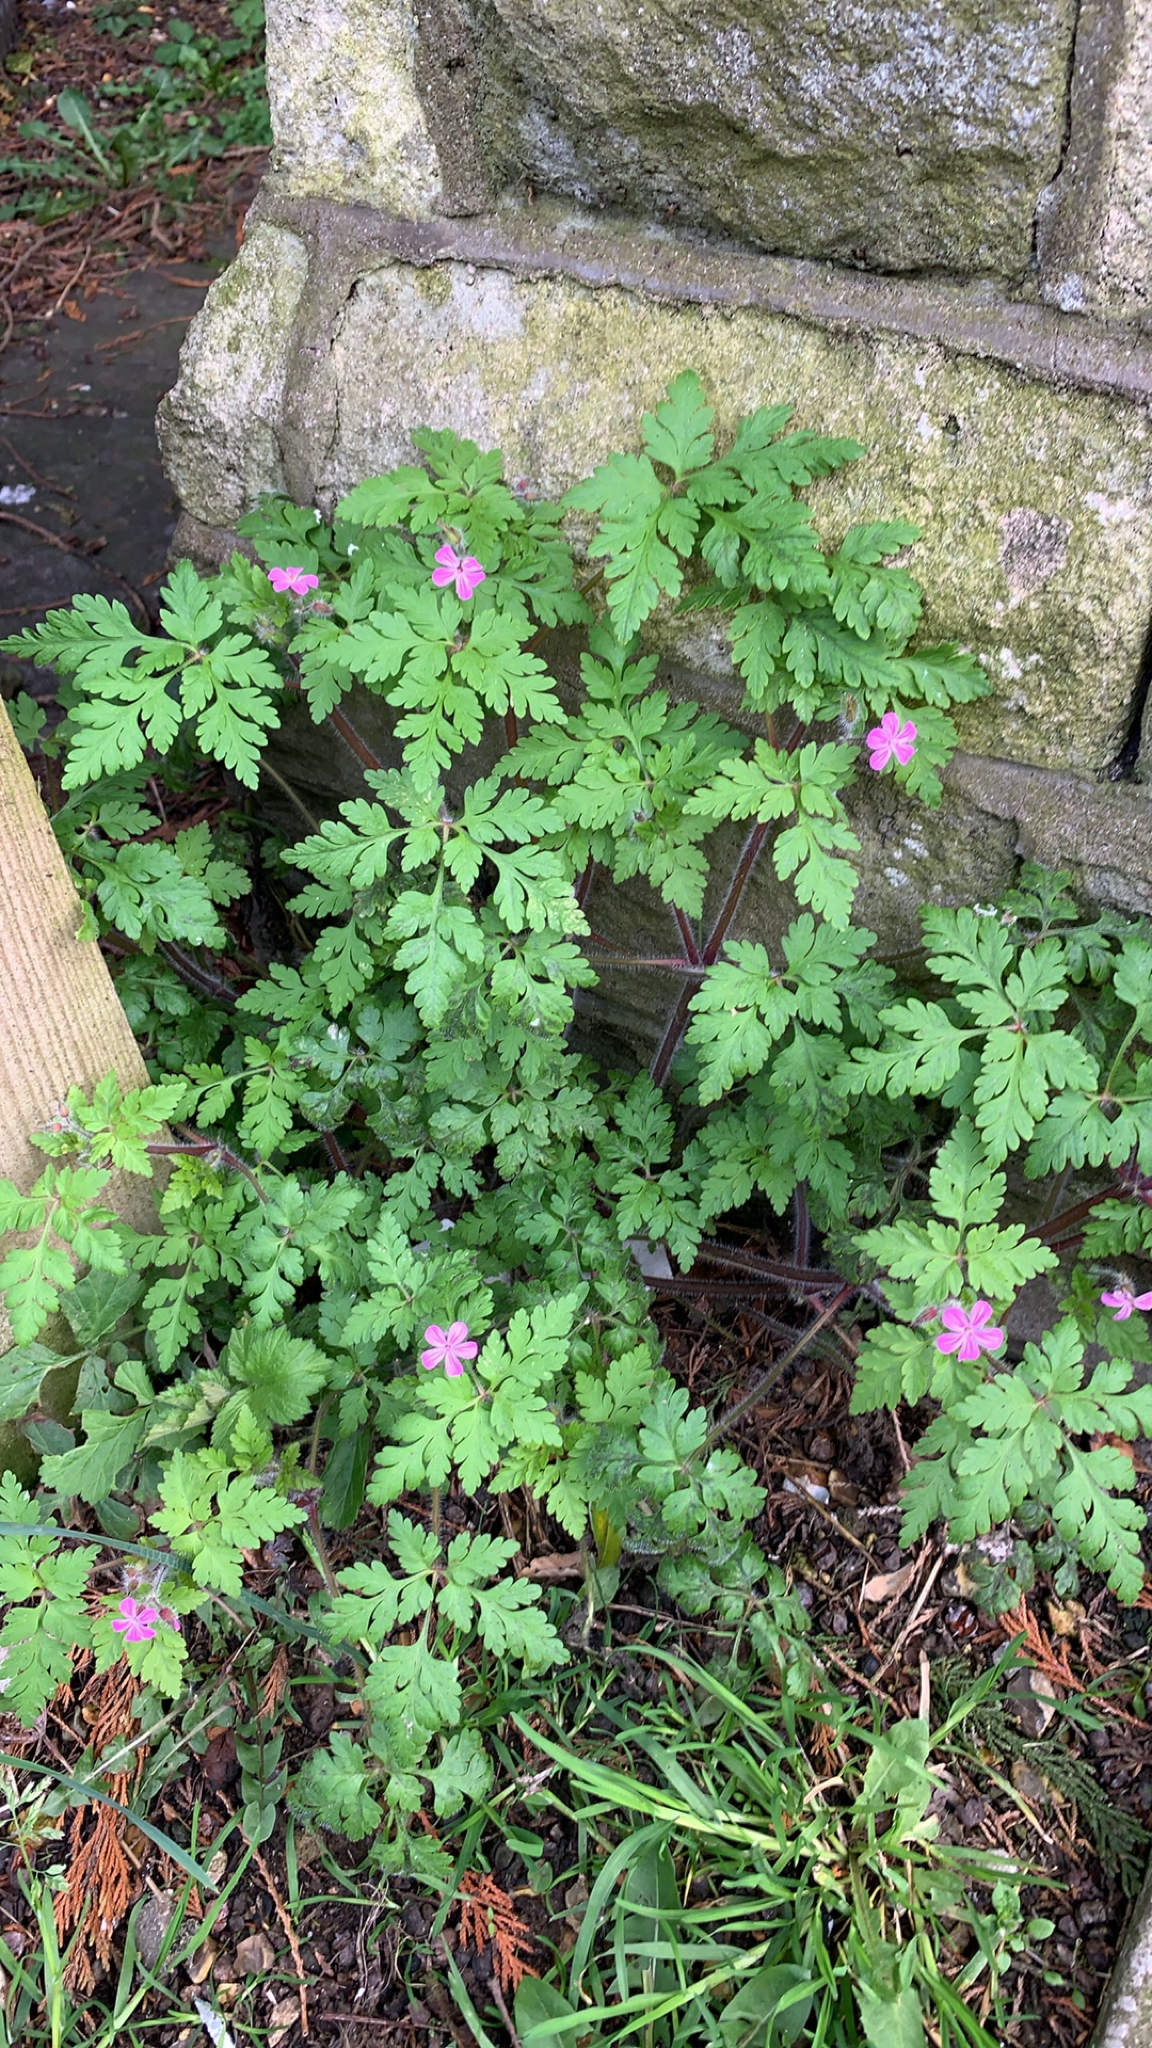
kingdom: Plantae
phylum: Tracheophyta
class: Magnoliopsida
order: Geraniales
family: Geraniaceae
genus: Geranium
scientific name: Geranium robertianum
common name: Herb-robert
